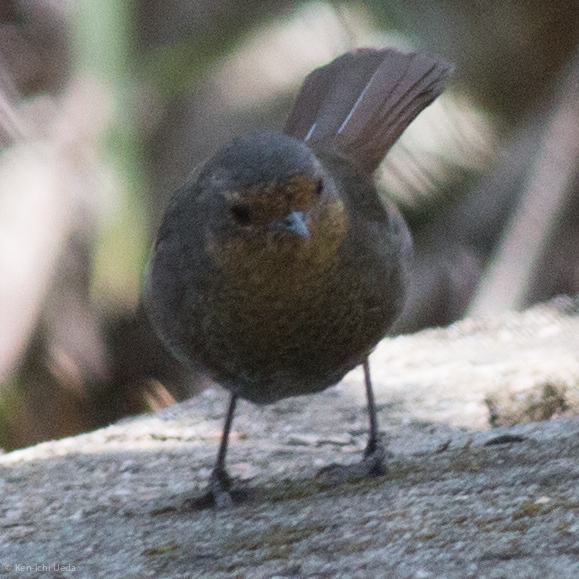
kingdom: Animalia
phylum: Chordata
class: Aves
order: Passeriformes
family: Acanthizidae
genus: Pycnoptilus
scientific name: Pycnoptilus floccosus
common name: Pilotbird
